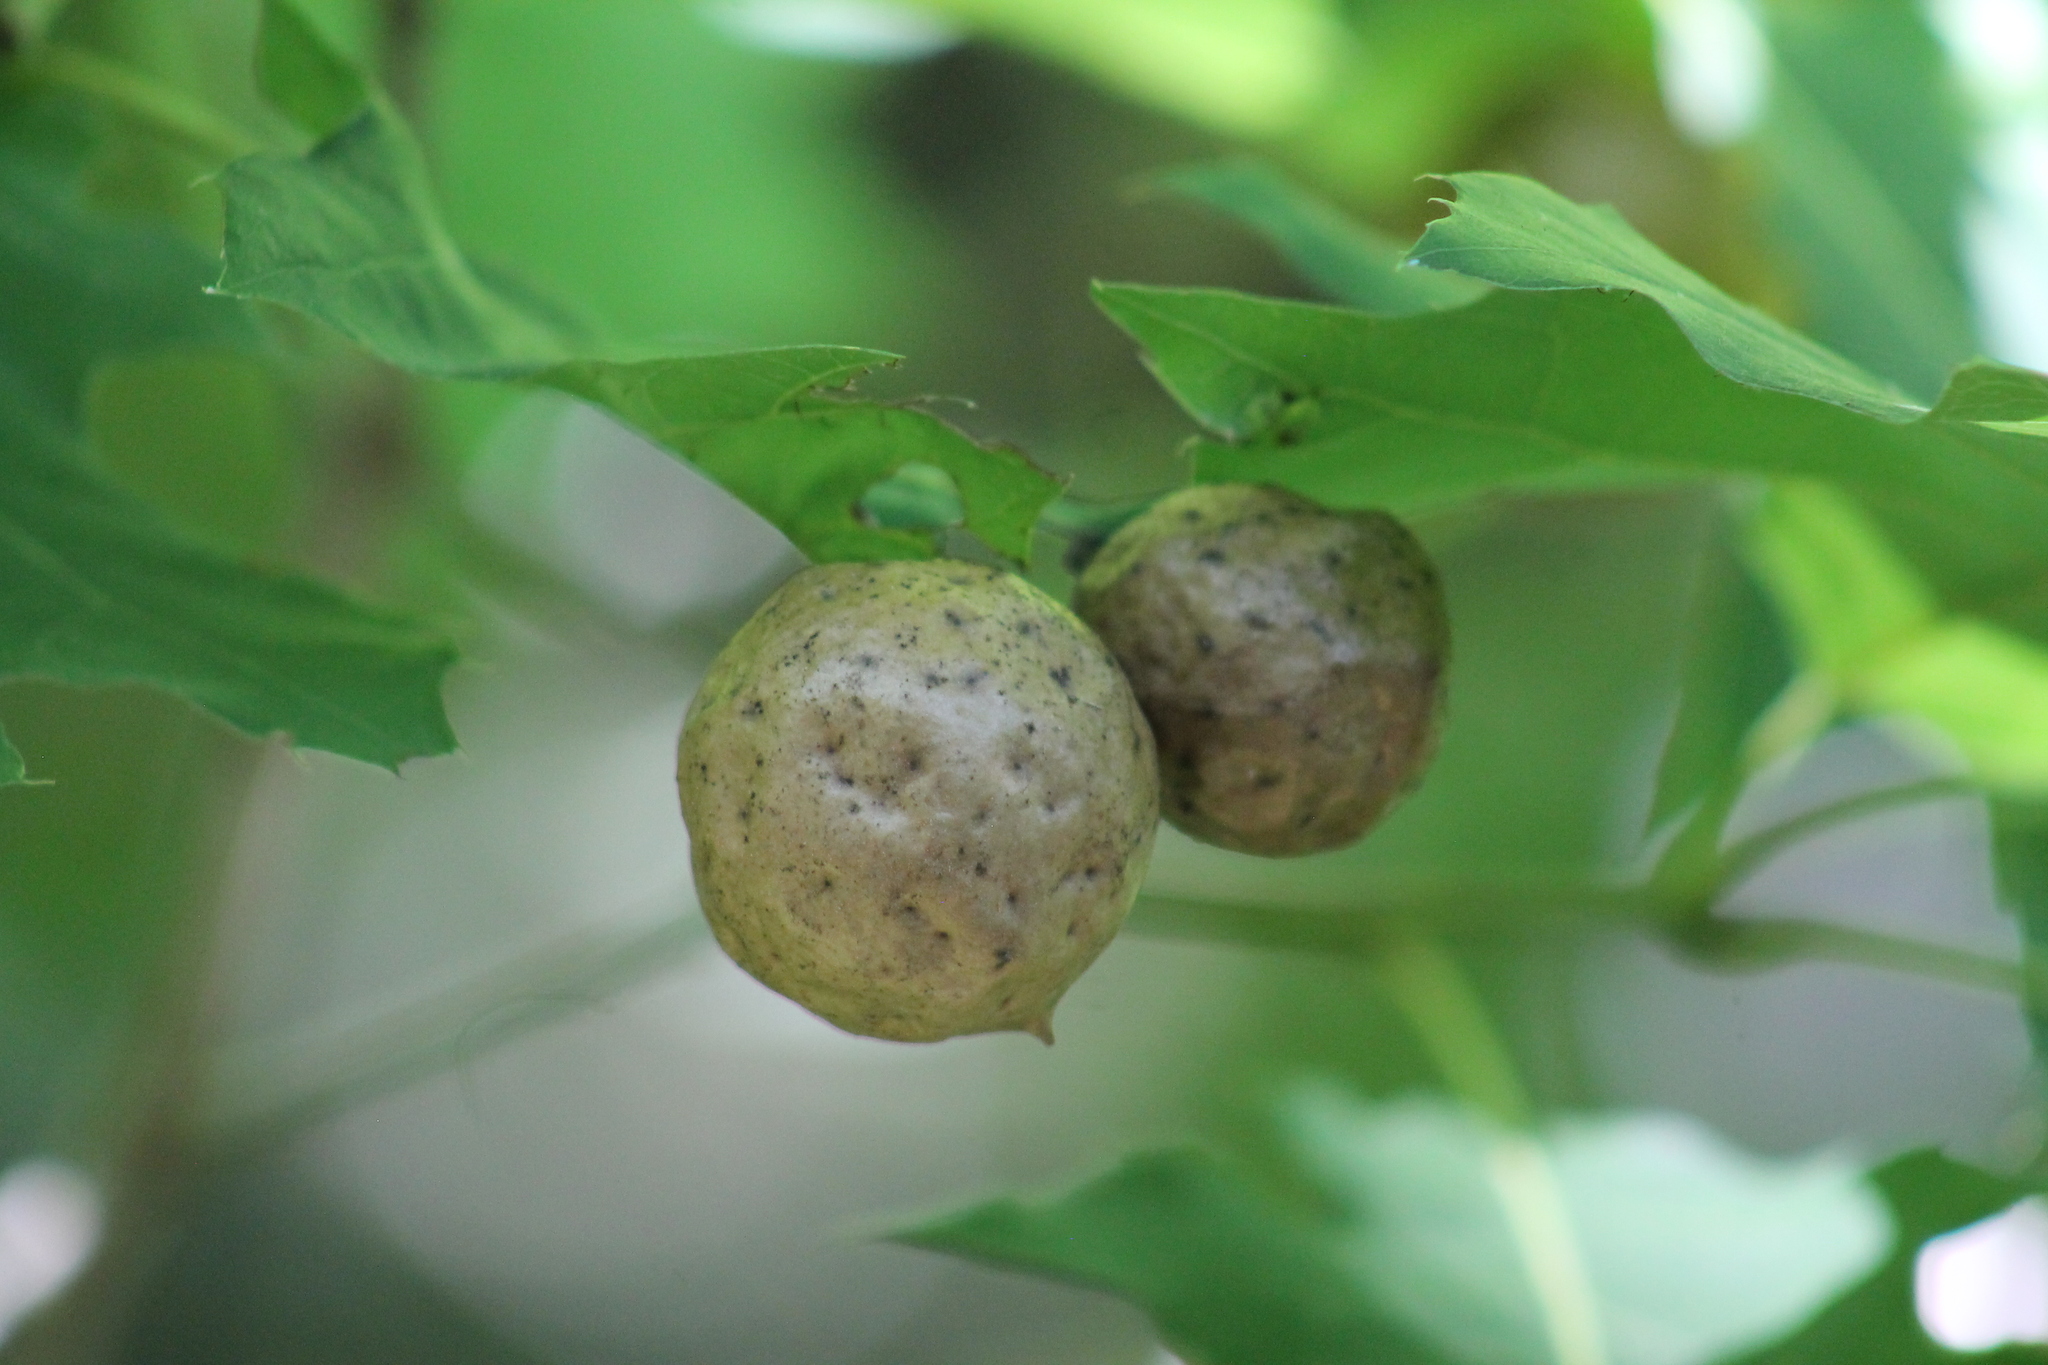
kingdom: Animalia
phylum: Arthropoda
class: Insecta
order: Hymenoptera
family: Cynipidae
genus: Amphibolips
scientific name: Amphibolips
